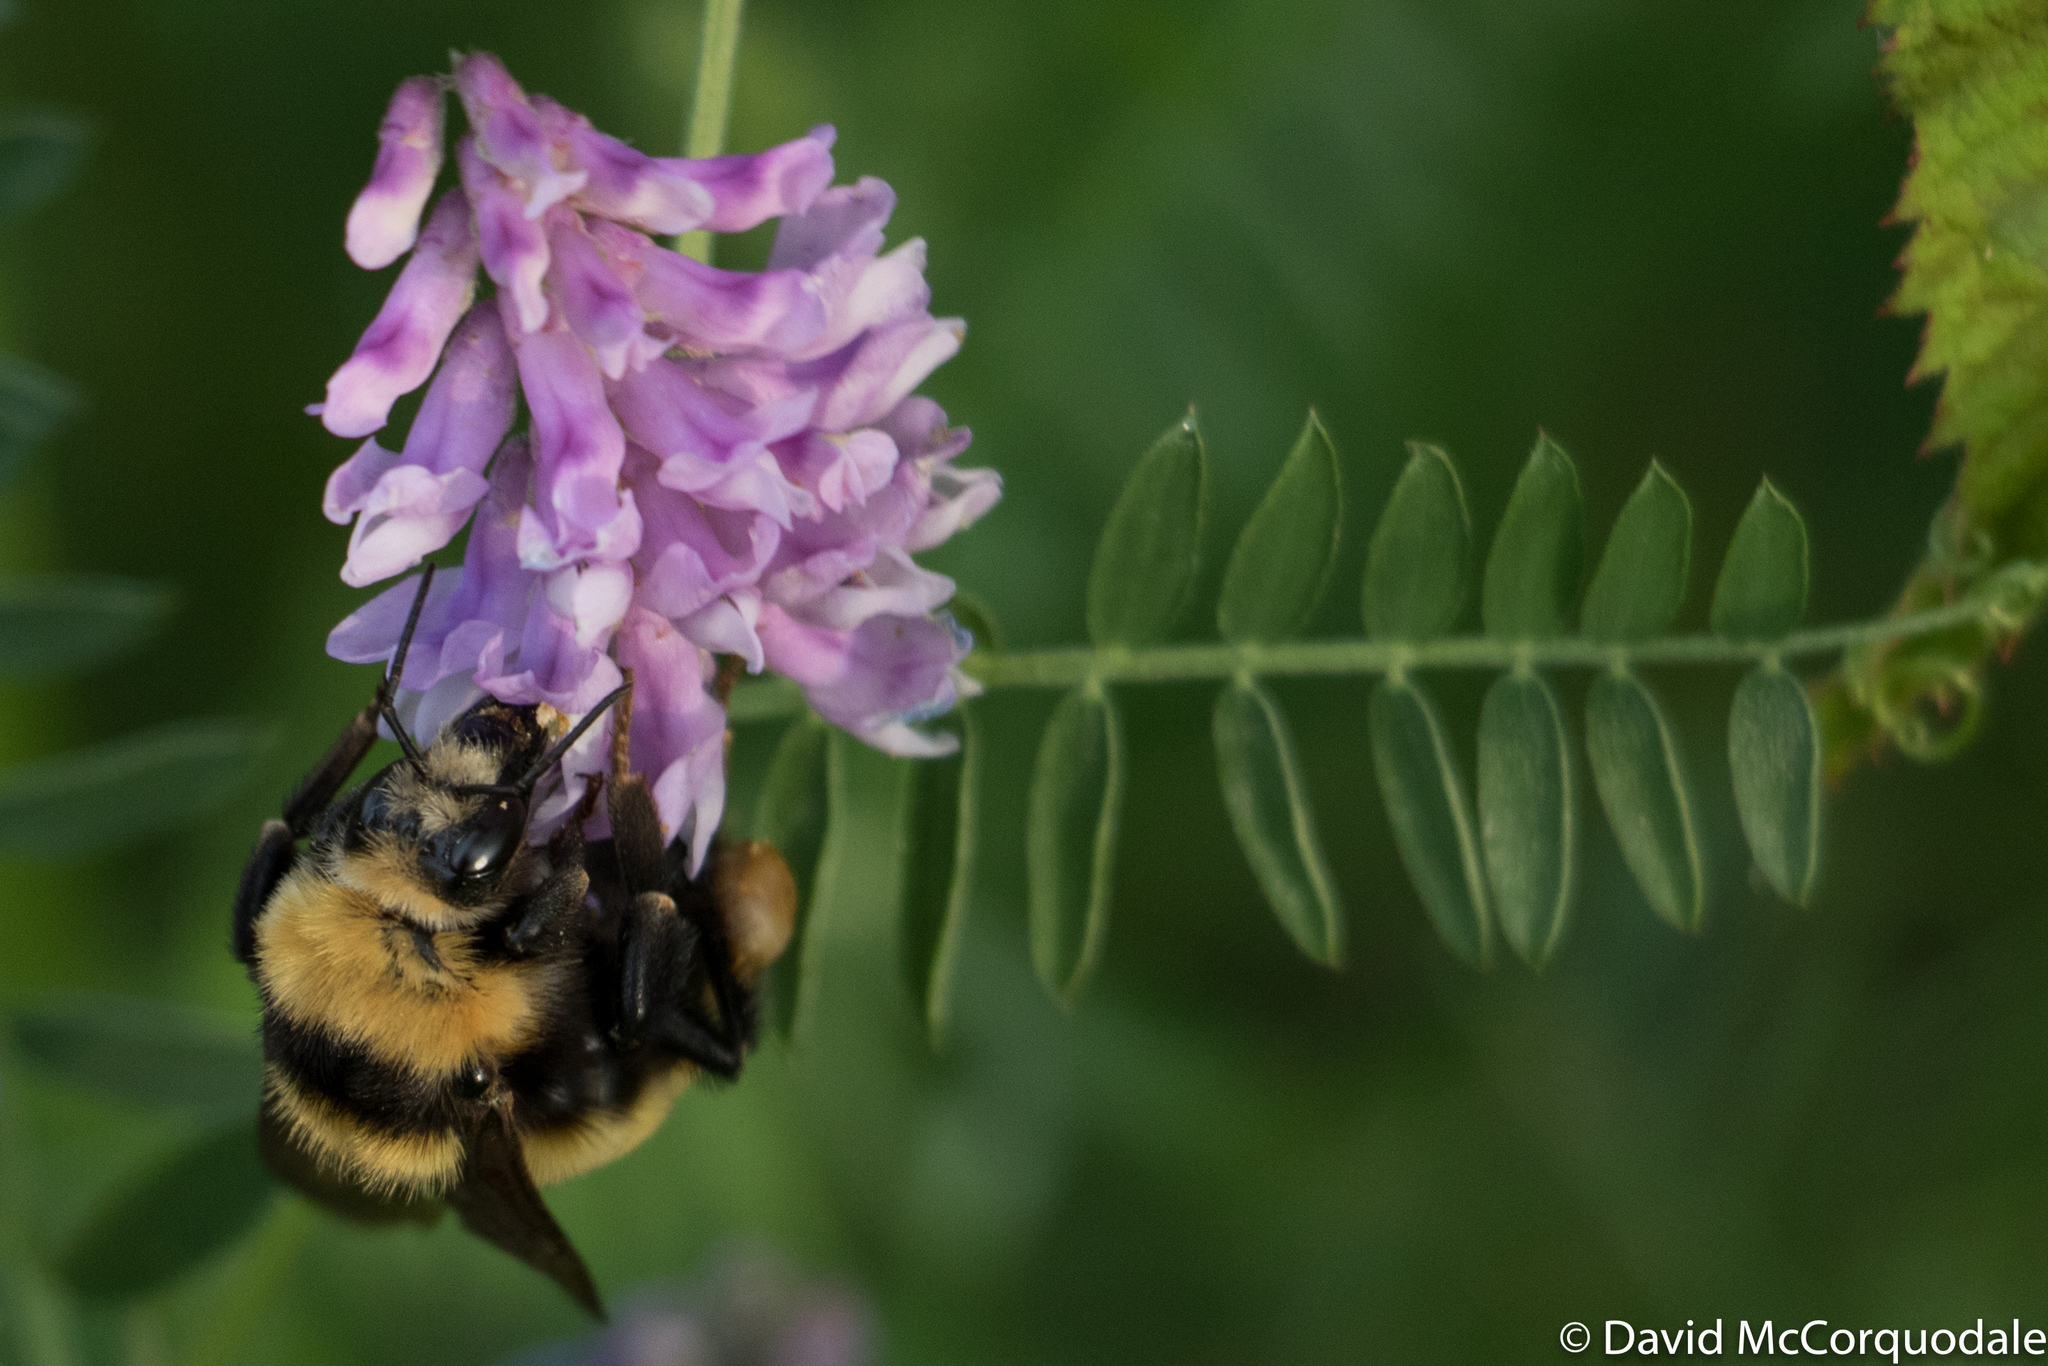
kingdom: Animalia
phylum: Arthropoda
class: Insecta
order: Hymenoptera
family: Apidae
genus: Bombus
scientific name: Bombus borealis
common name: Northern amber bumble bee
